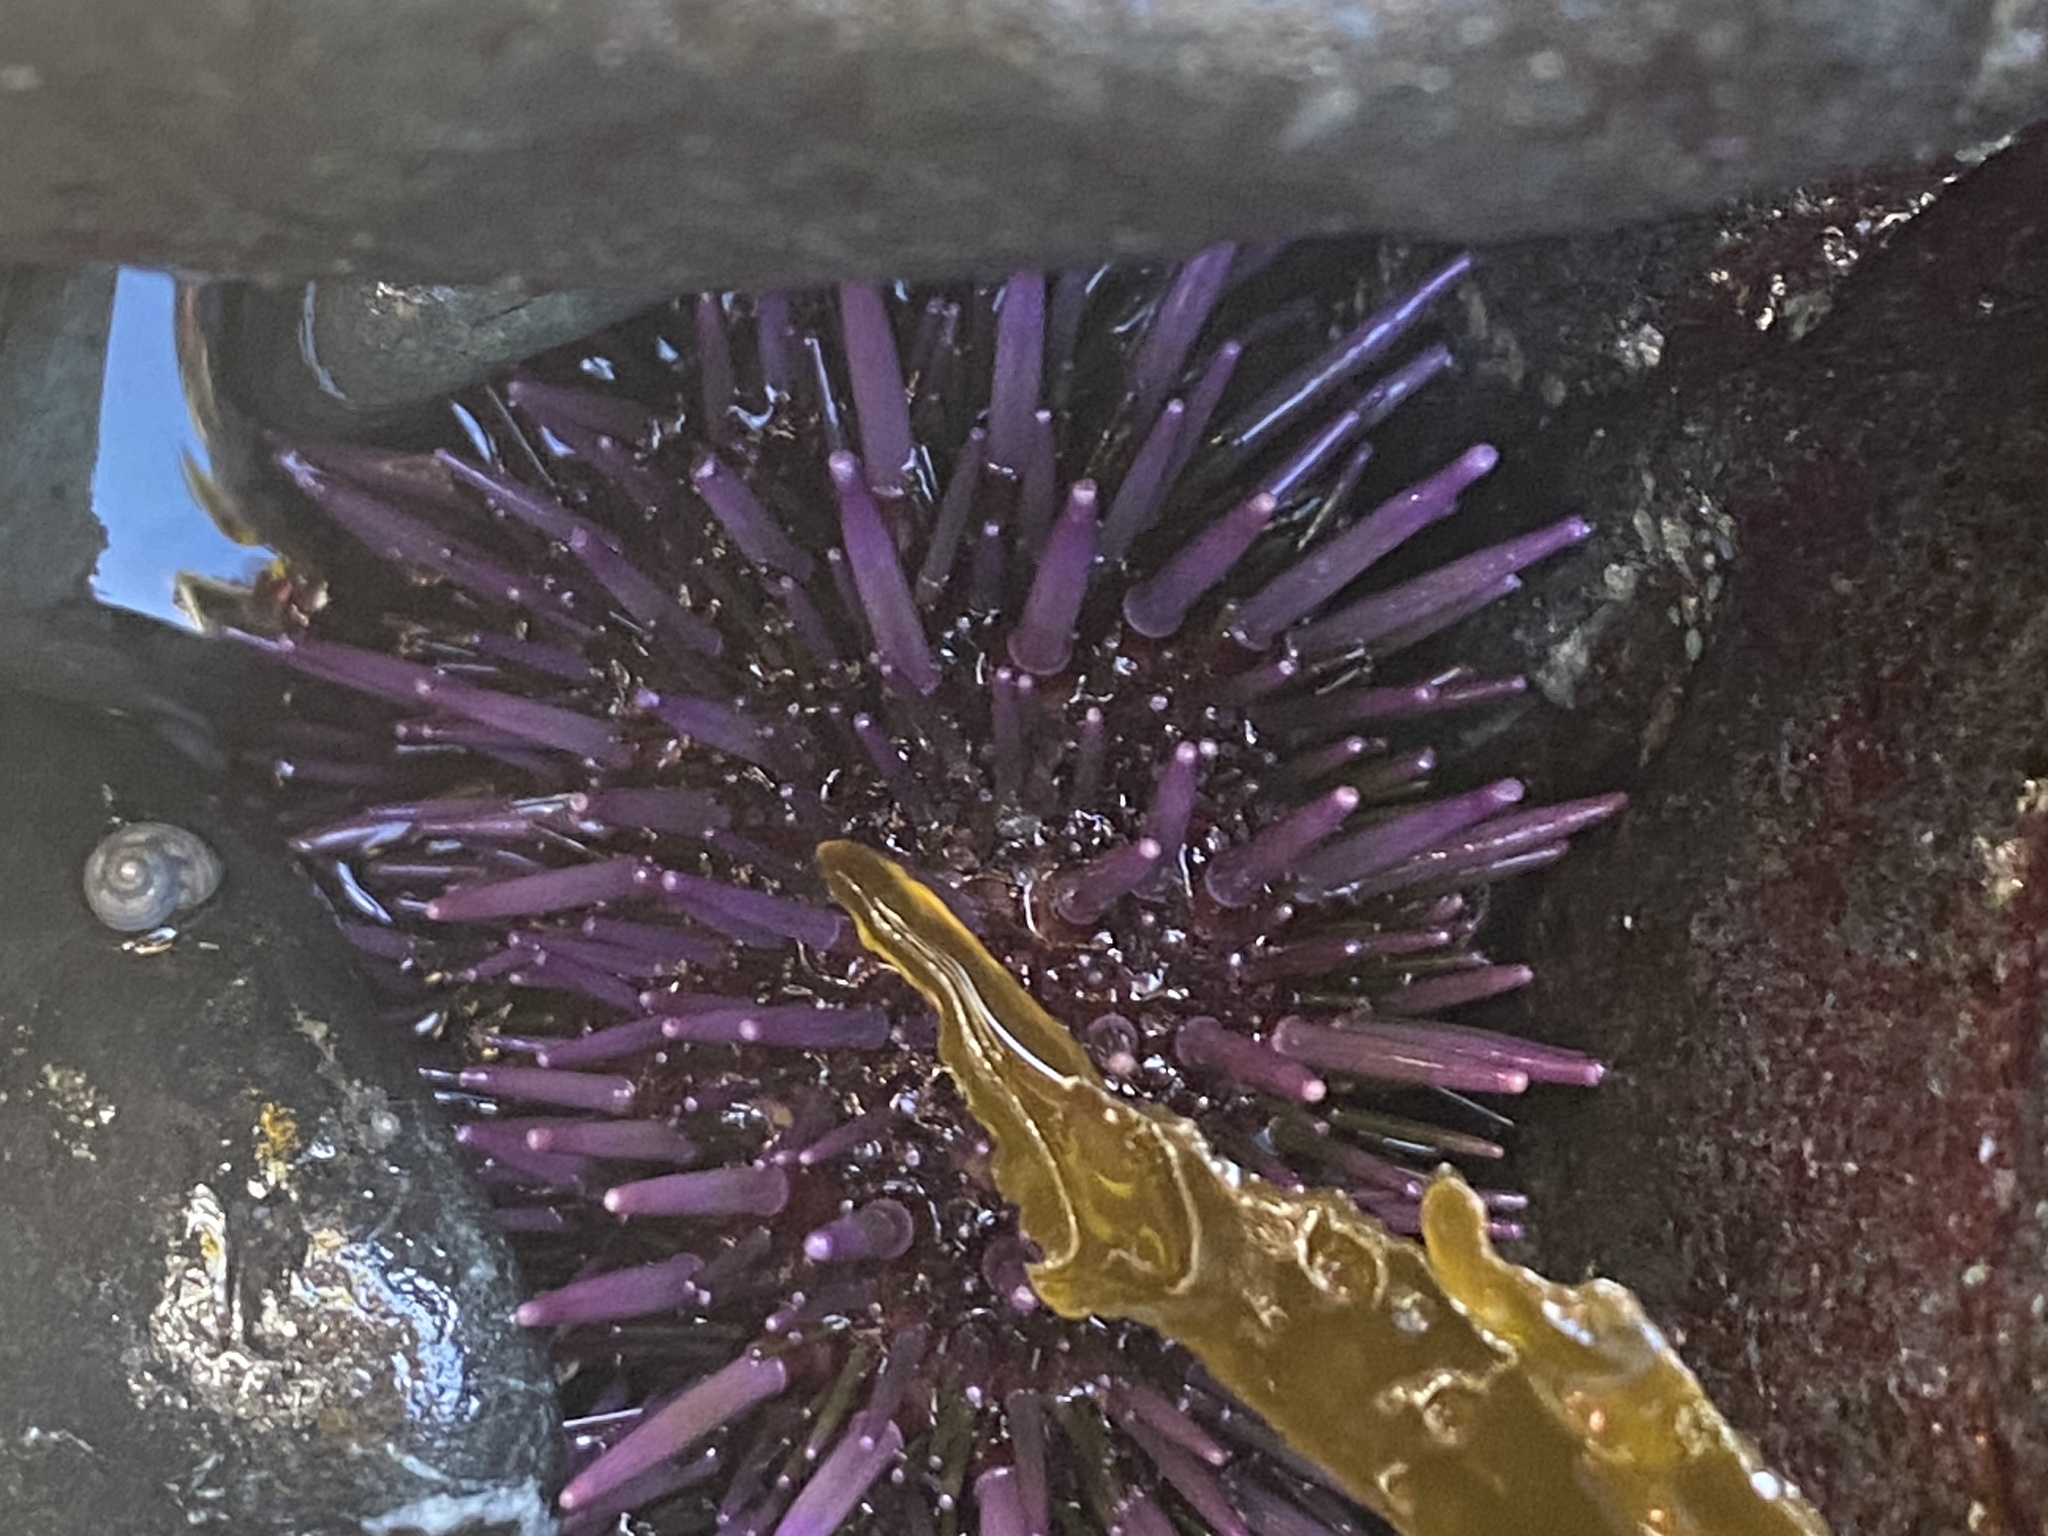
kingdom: Animalia
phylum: Echinodermata
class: Echinoidea
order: Camarodonta
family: Strongylocentrotidae
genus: Strongylocentrotus
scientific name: Strongylocentrotus purpuratus
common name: Purple sea urchin
